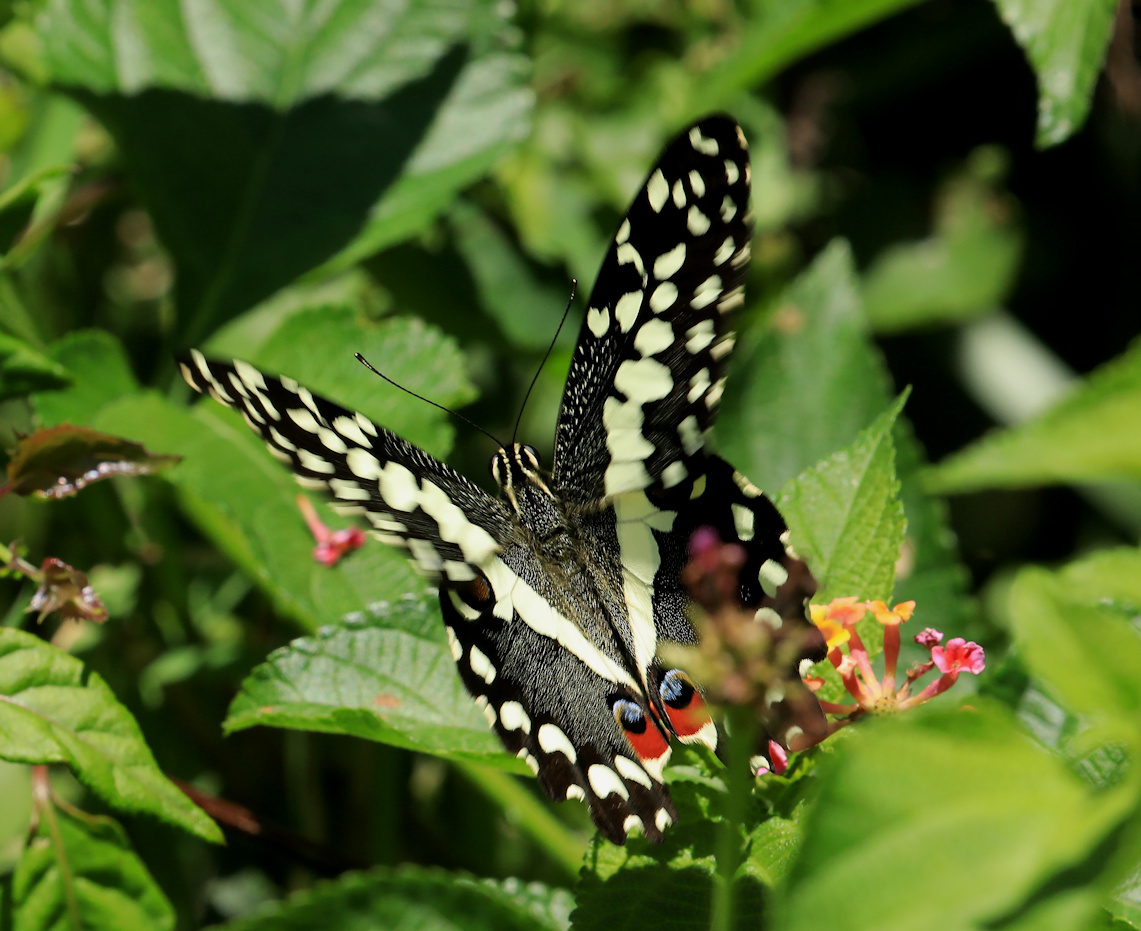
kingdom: Animalia
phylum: Arthropoda
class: Insecta
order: Lepidoptera
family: Papilionidae
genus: Papilio
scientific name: Papilio demodocus
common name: Christmas butterfly
